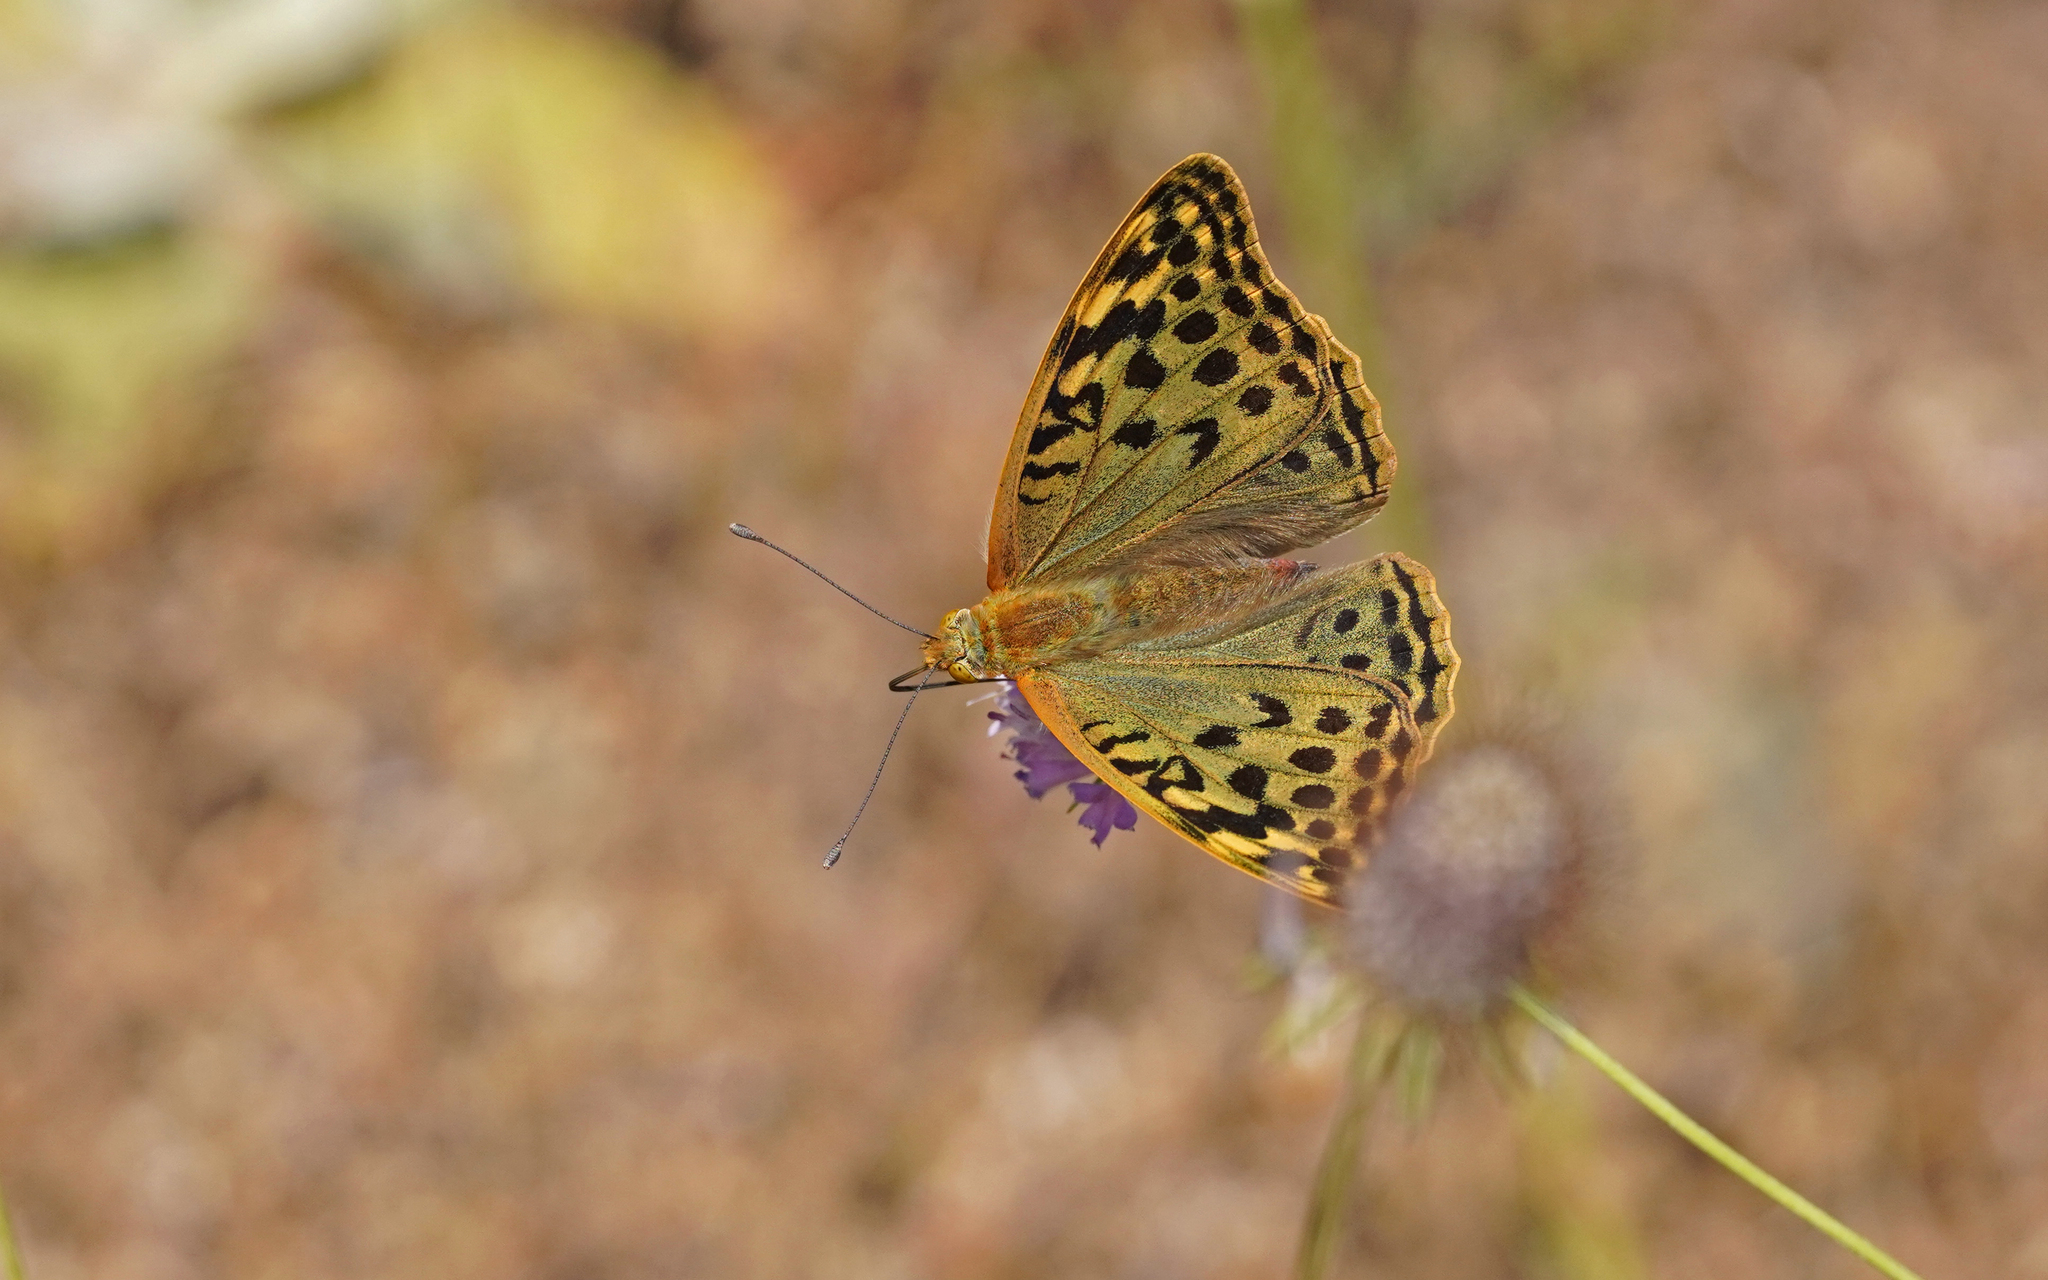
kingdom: Animalia
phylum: Arthropoda
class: Insecta
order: Lepidoptera
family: Nymphalidae
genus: Damora
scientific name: Damora pandora
